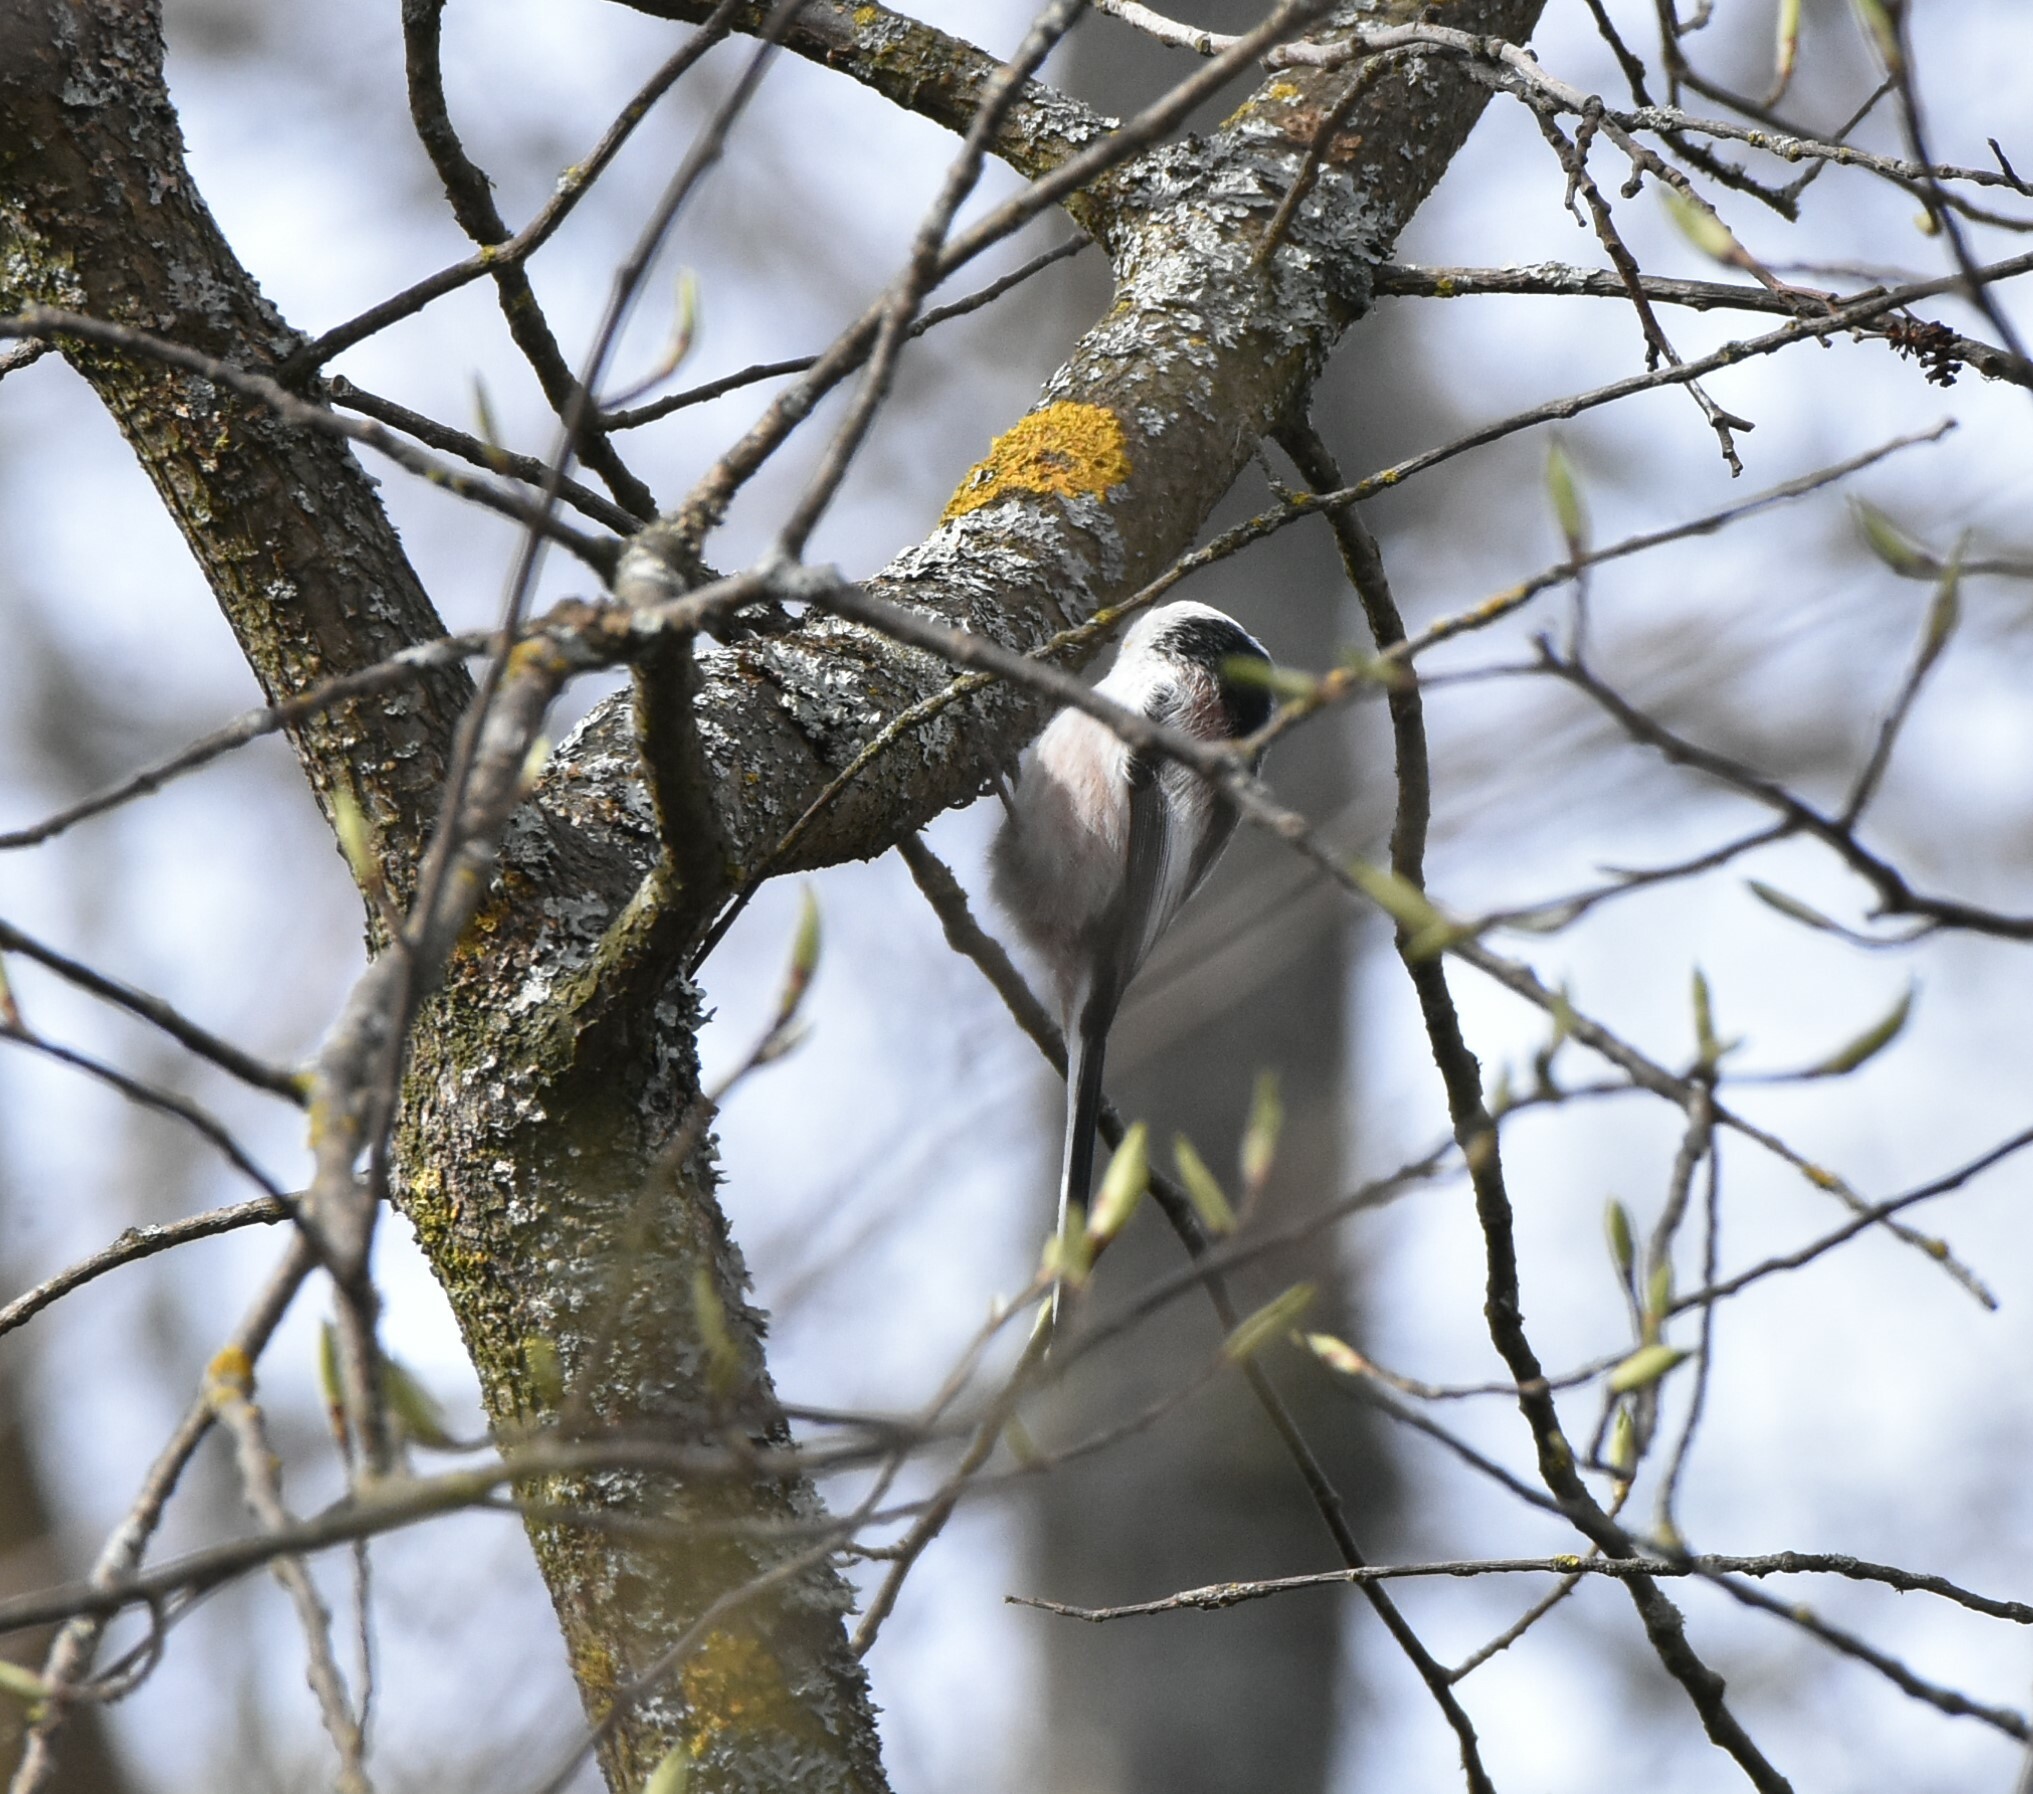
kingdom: Animalia
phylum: Chordata
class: Aves
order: Passeriformes
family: Aegithalidae
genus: Aegithalos
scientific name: Aegithalos caudatus
